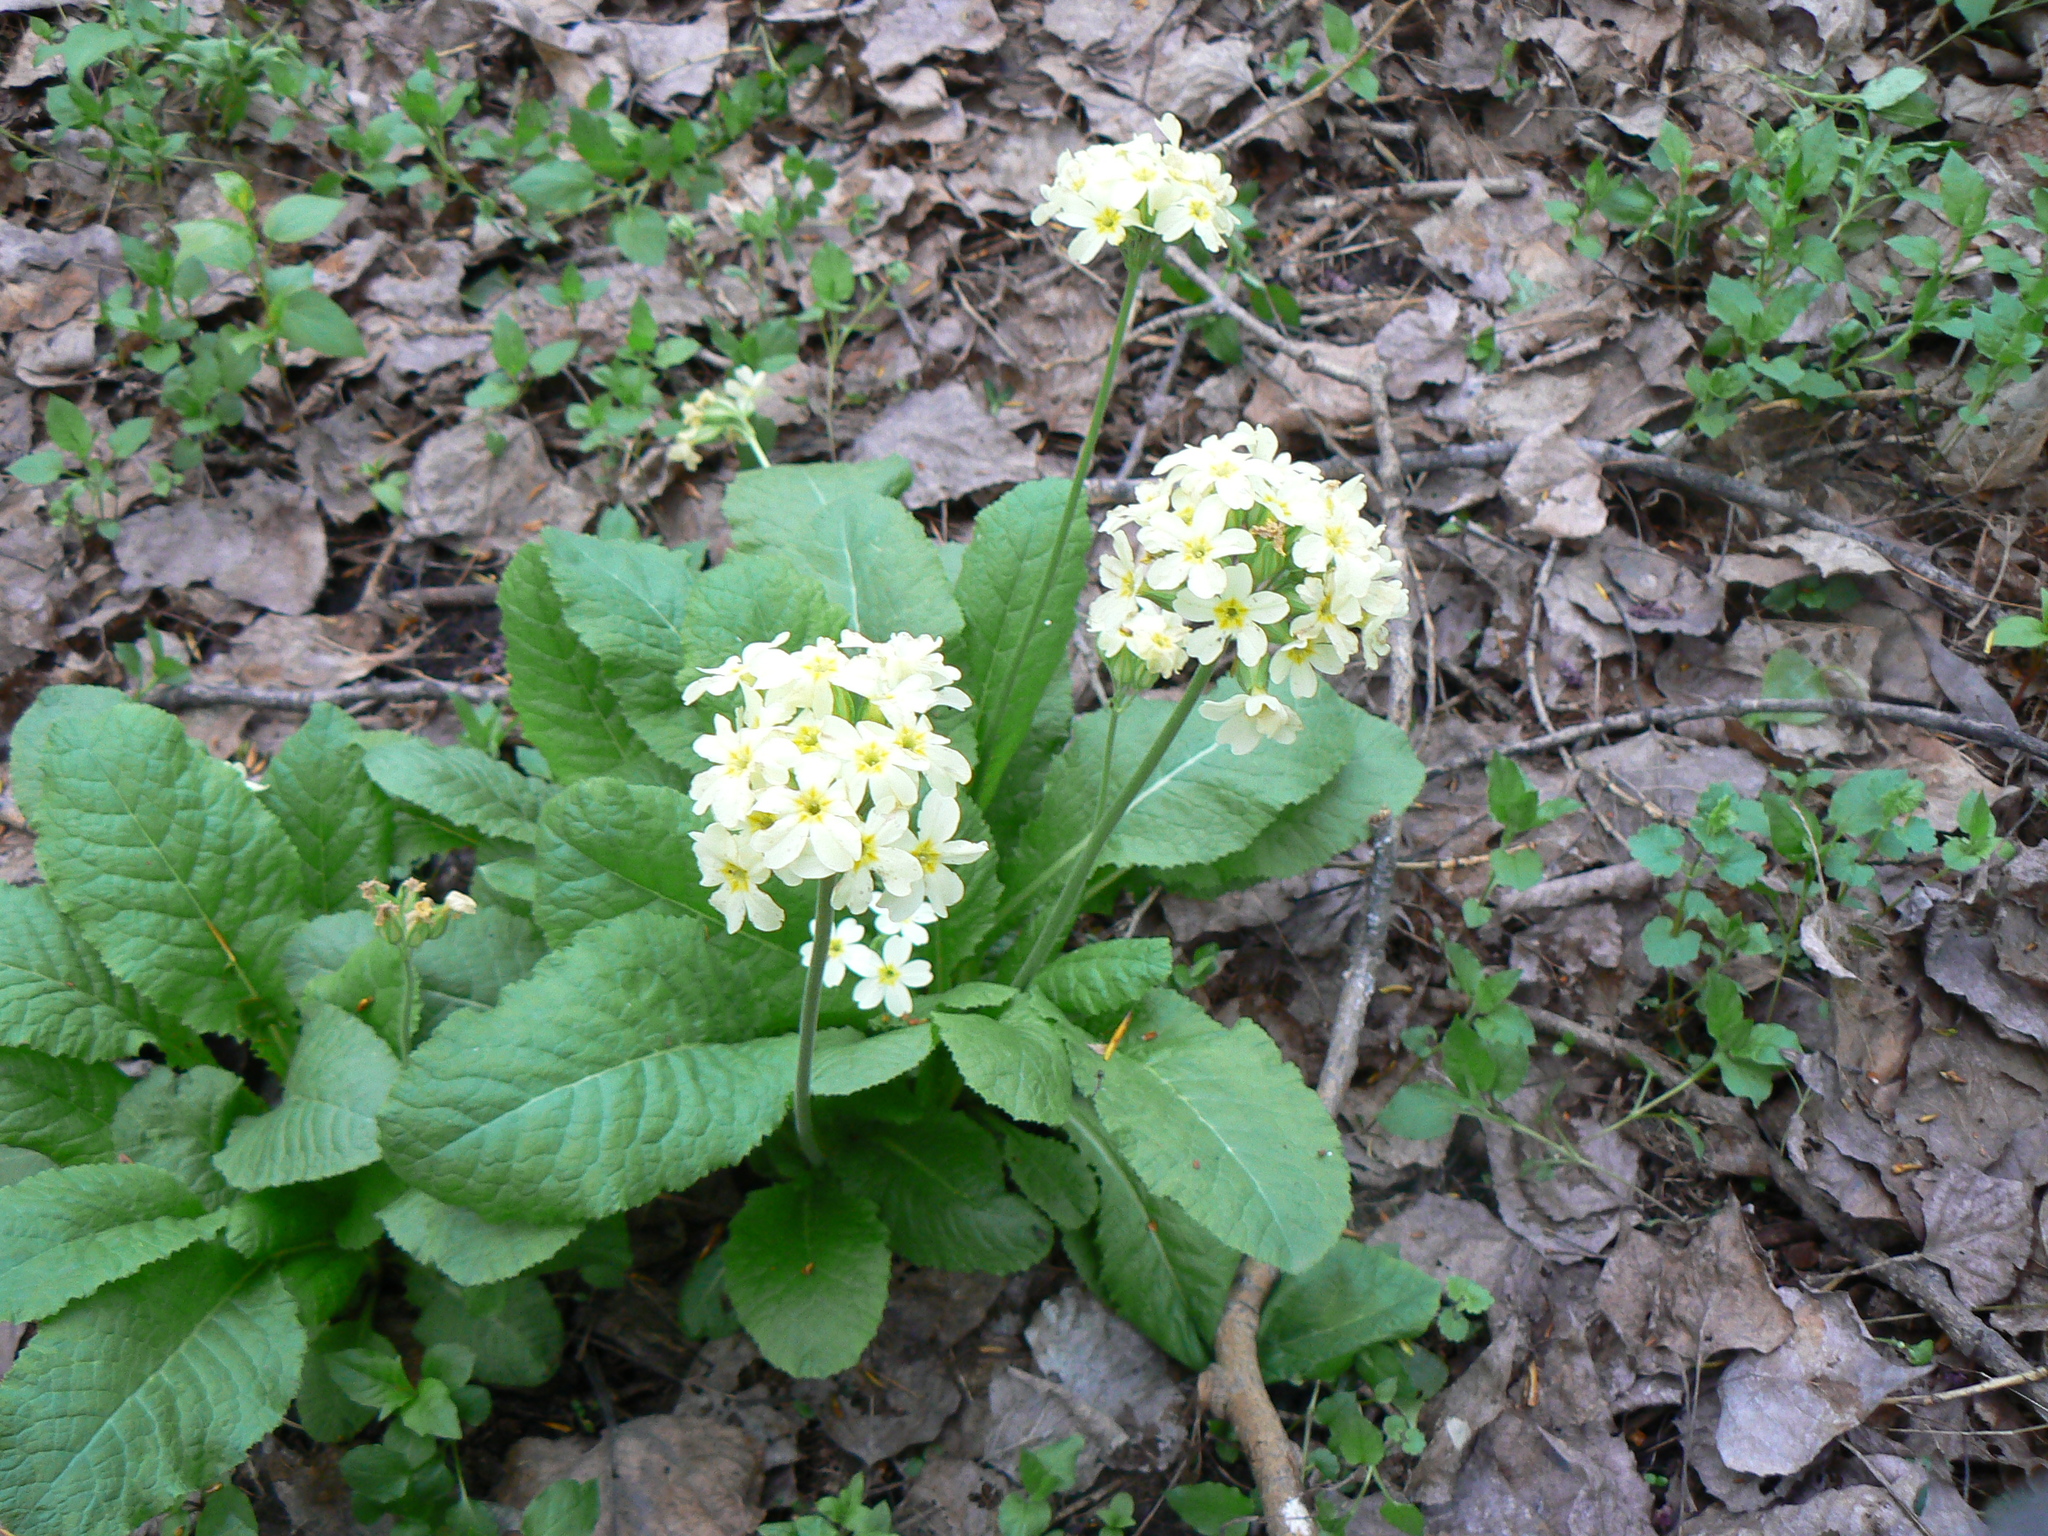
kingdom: Plantae
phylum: Tracheophyta
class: Magnoliopsida
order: Ericales
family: Primulaceae
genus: Primula
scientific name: Primula elatior
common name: Oxlip
